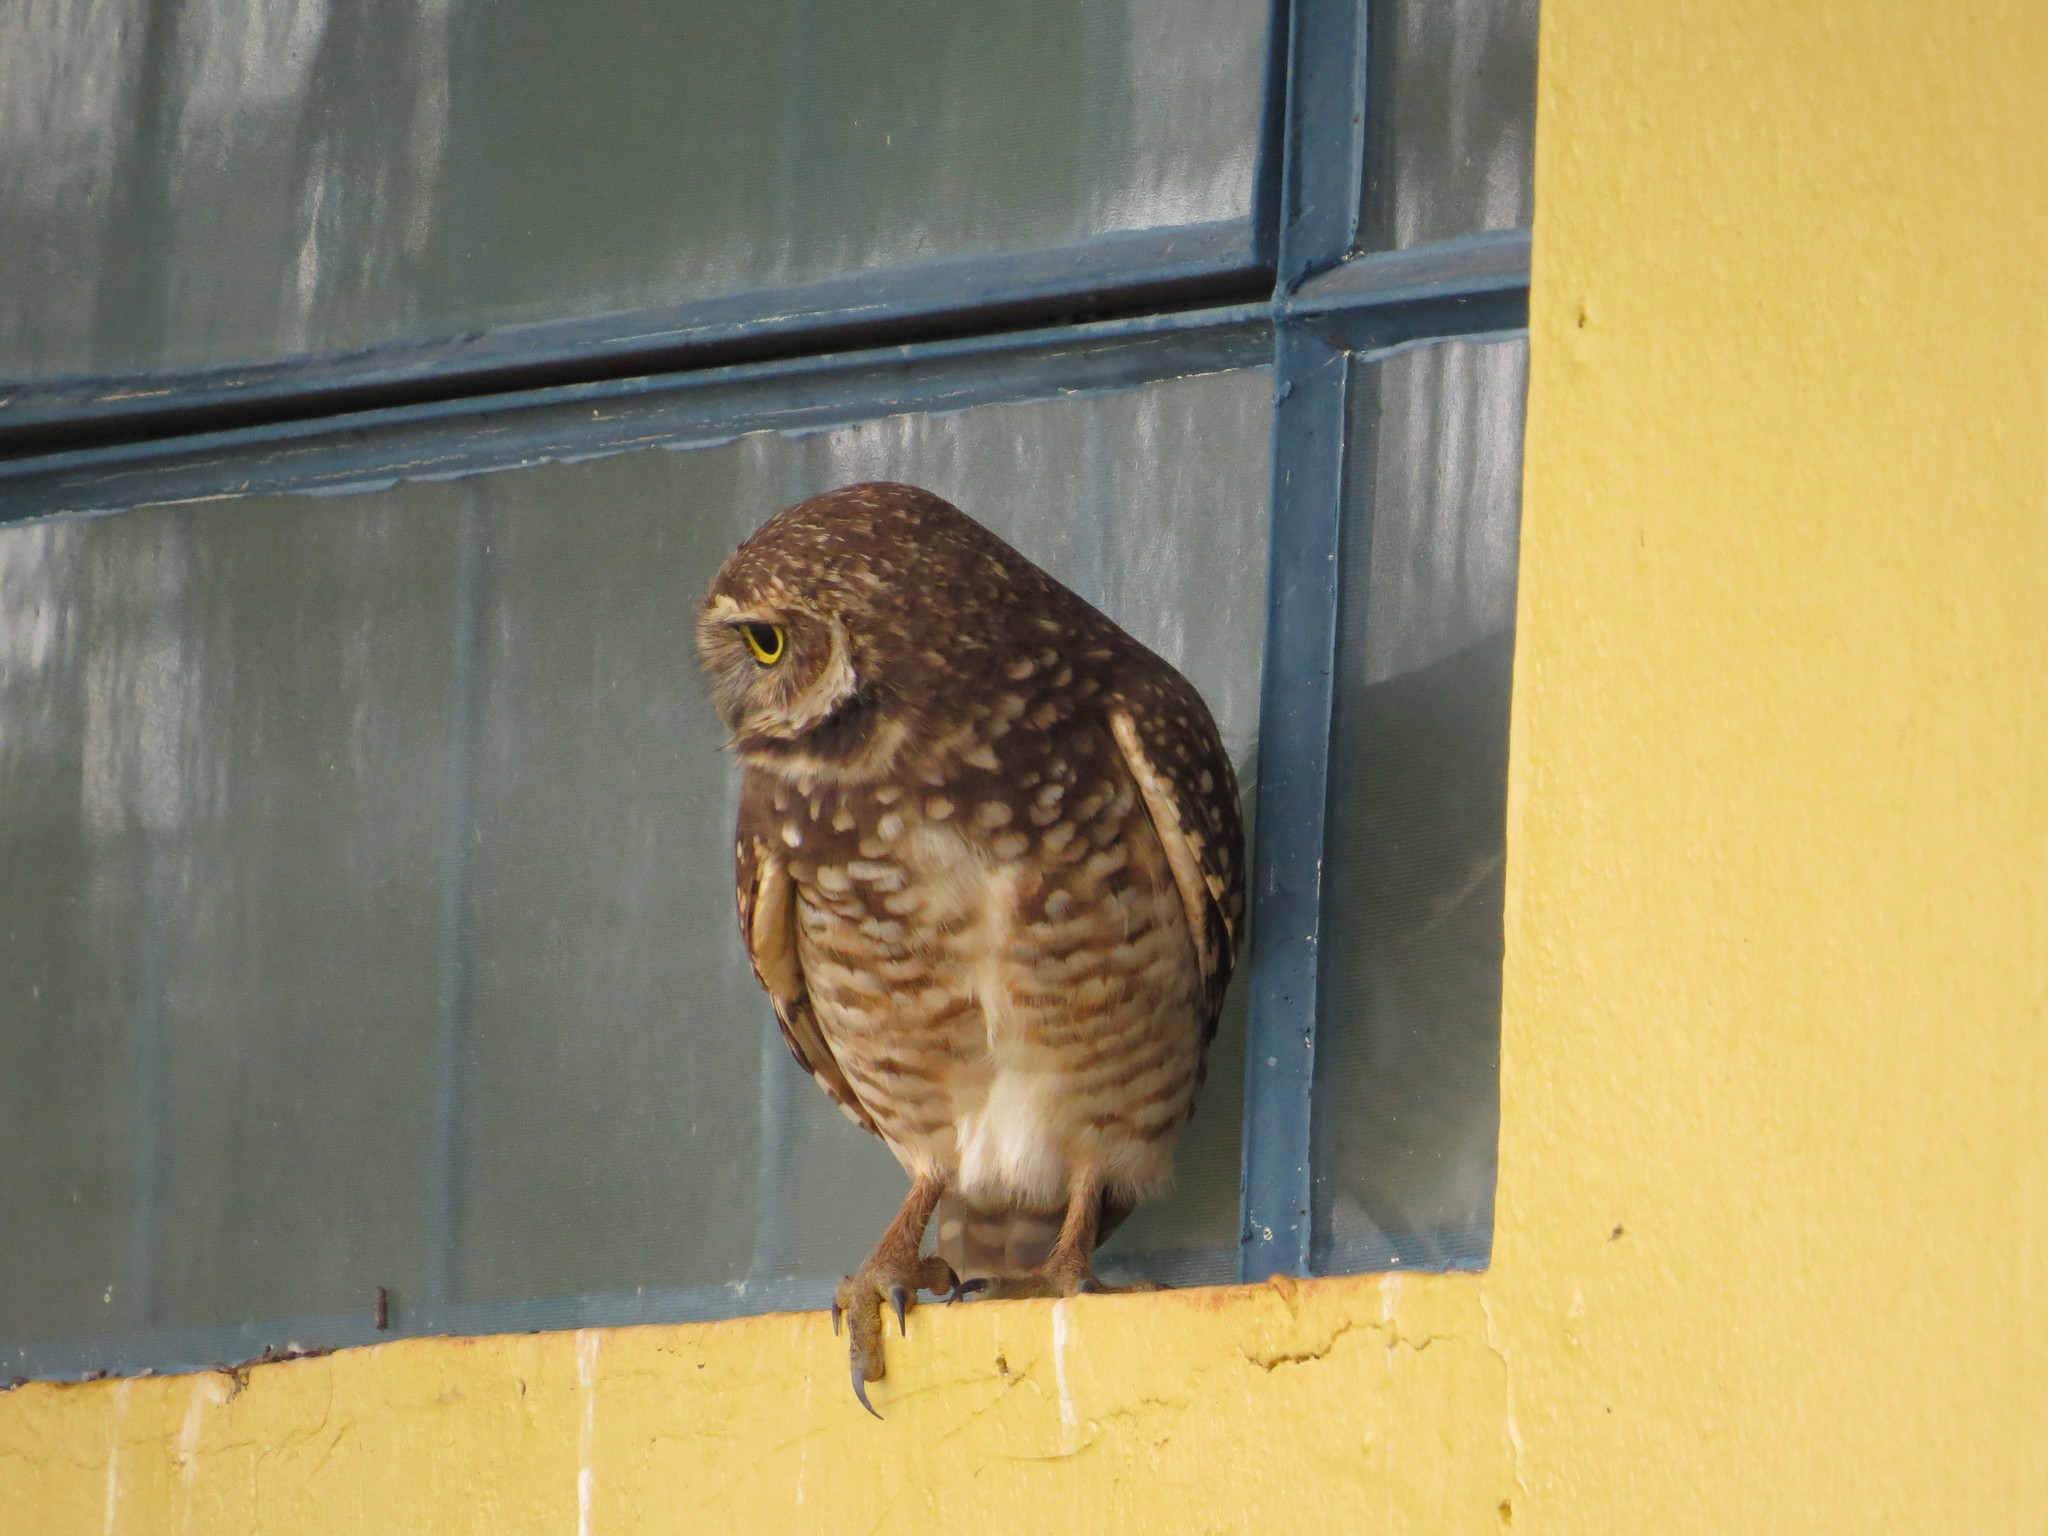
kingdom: Animalia
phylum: Chordata
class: Aves
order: Strigiformes
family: Strigidae
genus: Athene
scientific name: Athene cunicularia
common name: Burrowing owl
